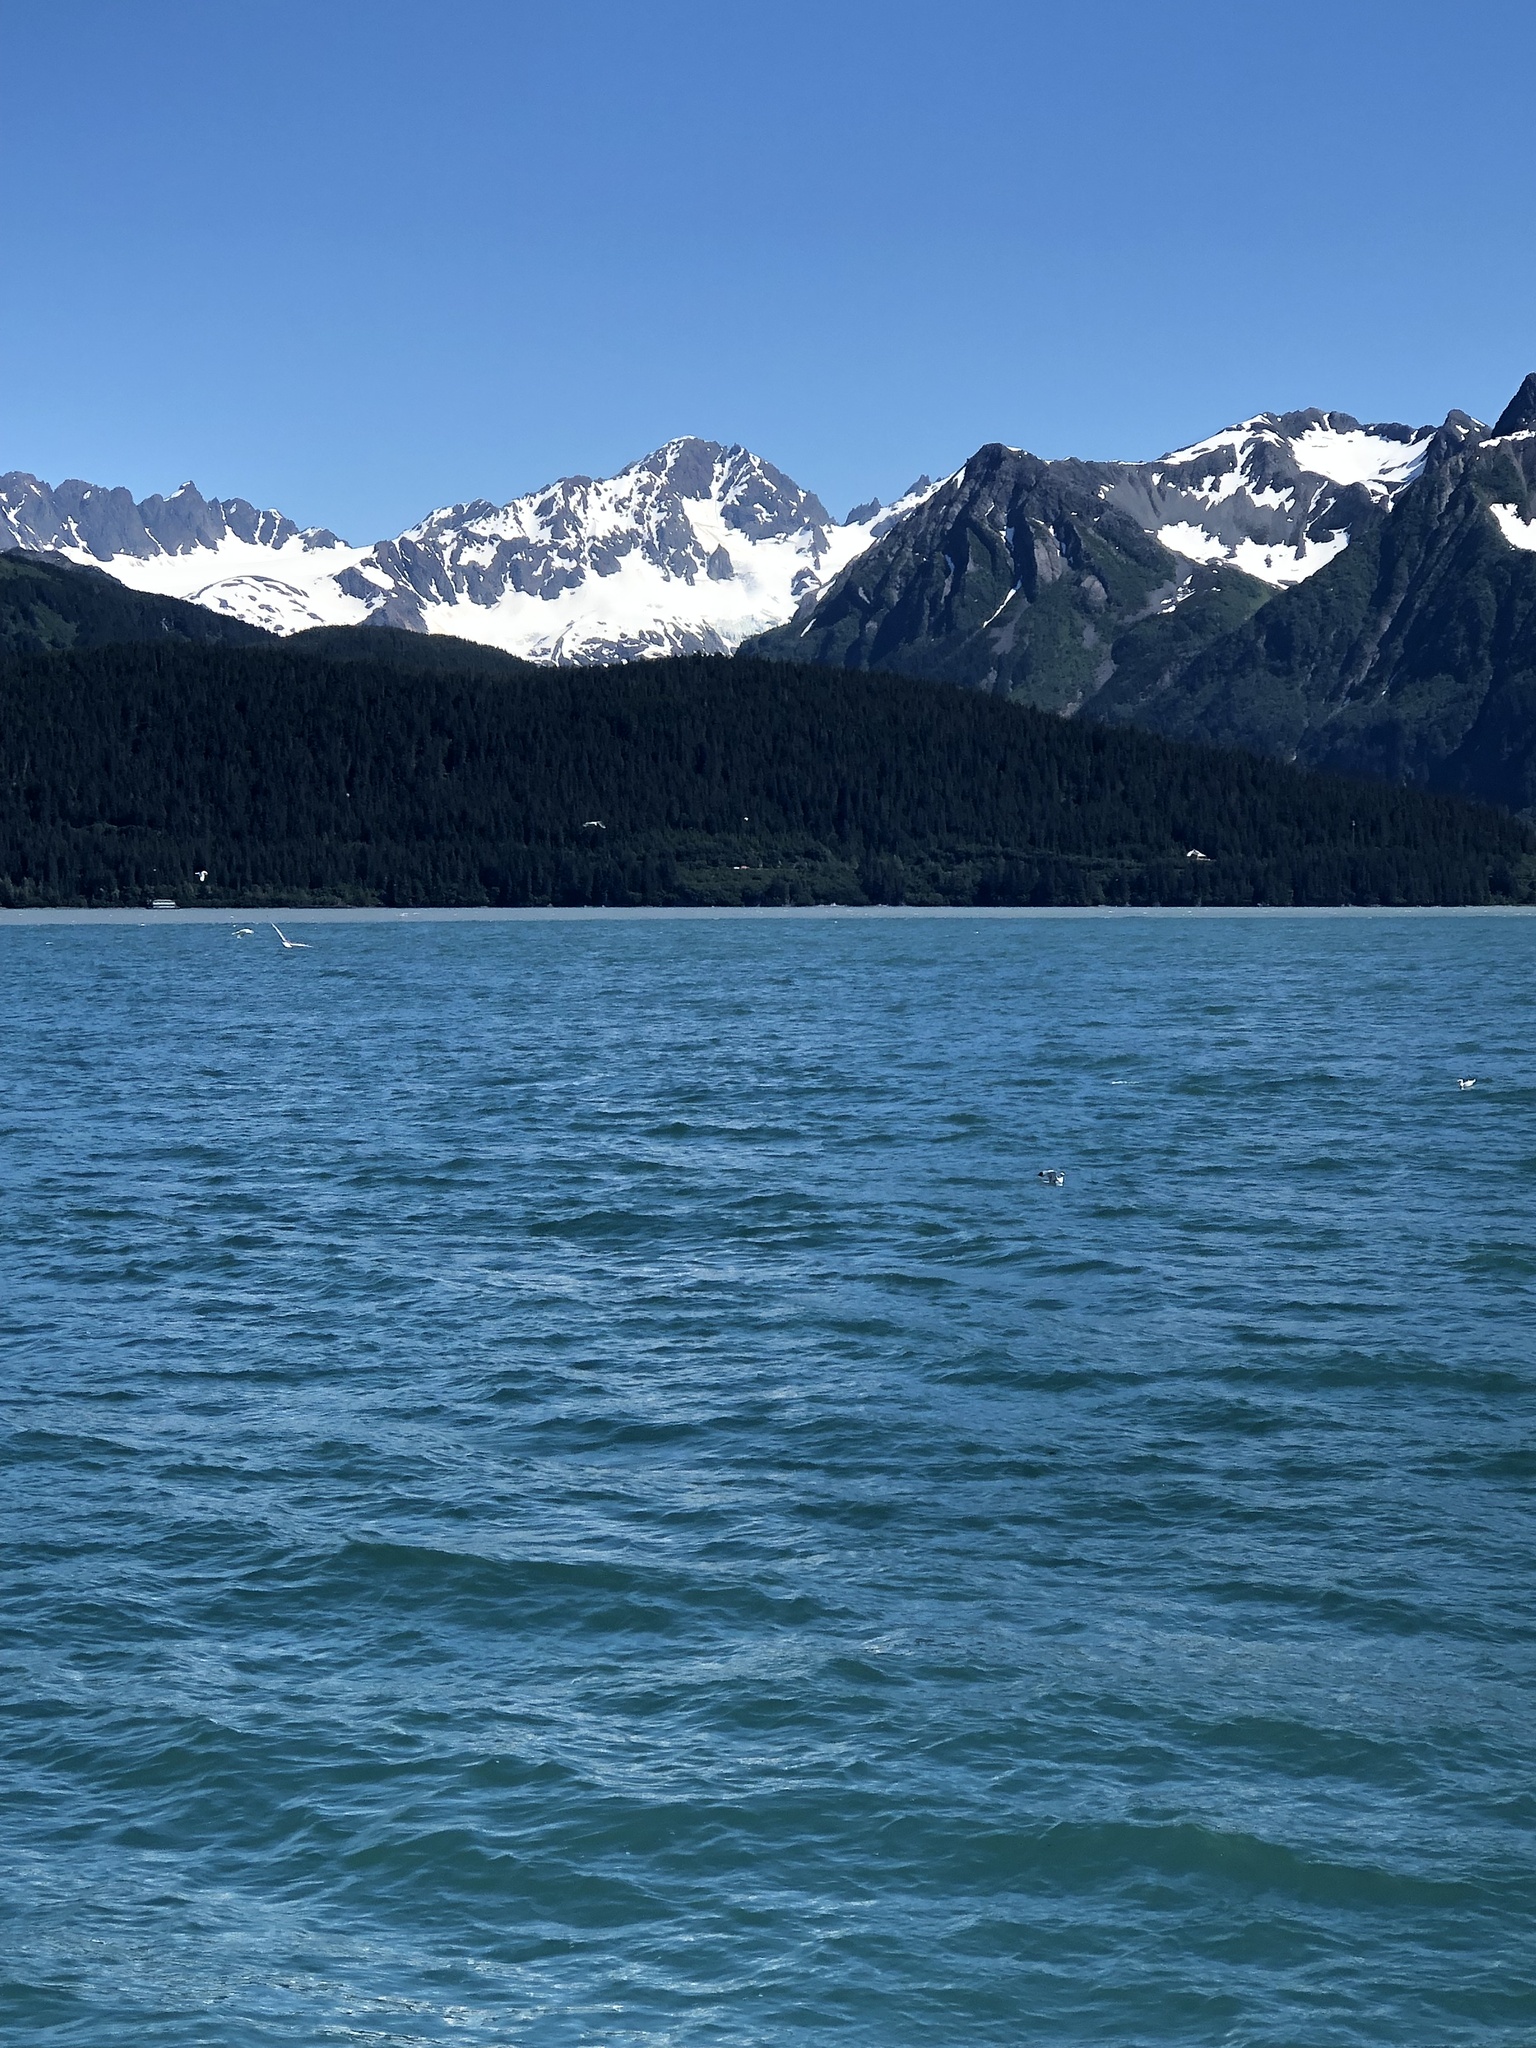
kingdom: Animalia
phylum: Chordata
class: Aves
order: Charadriiformes
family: Laridae
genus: Rissa
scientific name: Rissa tridactyla
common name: Black-legged kittiwake
